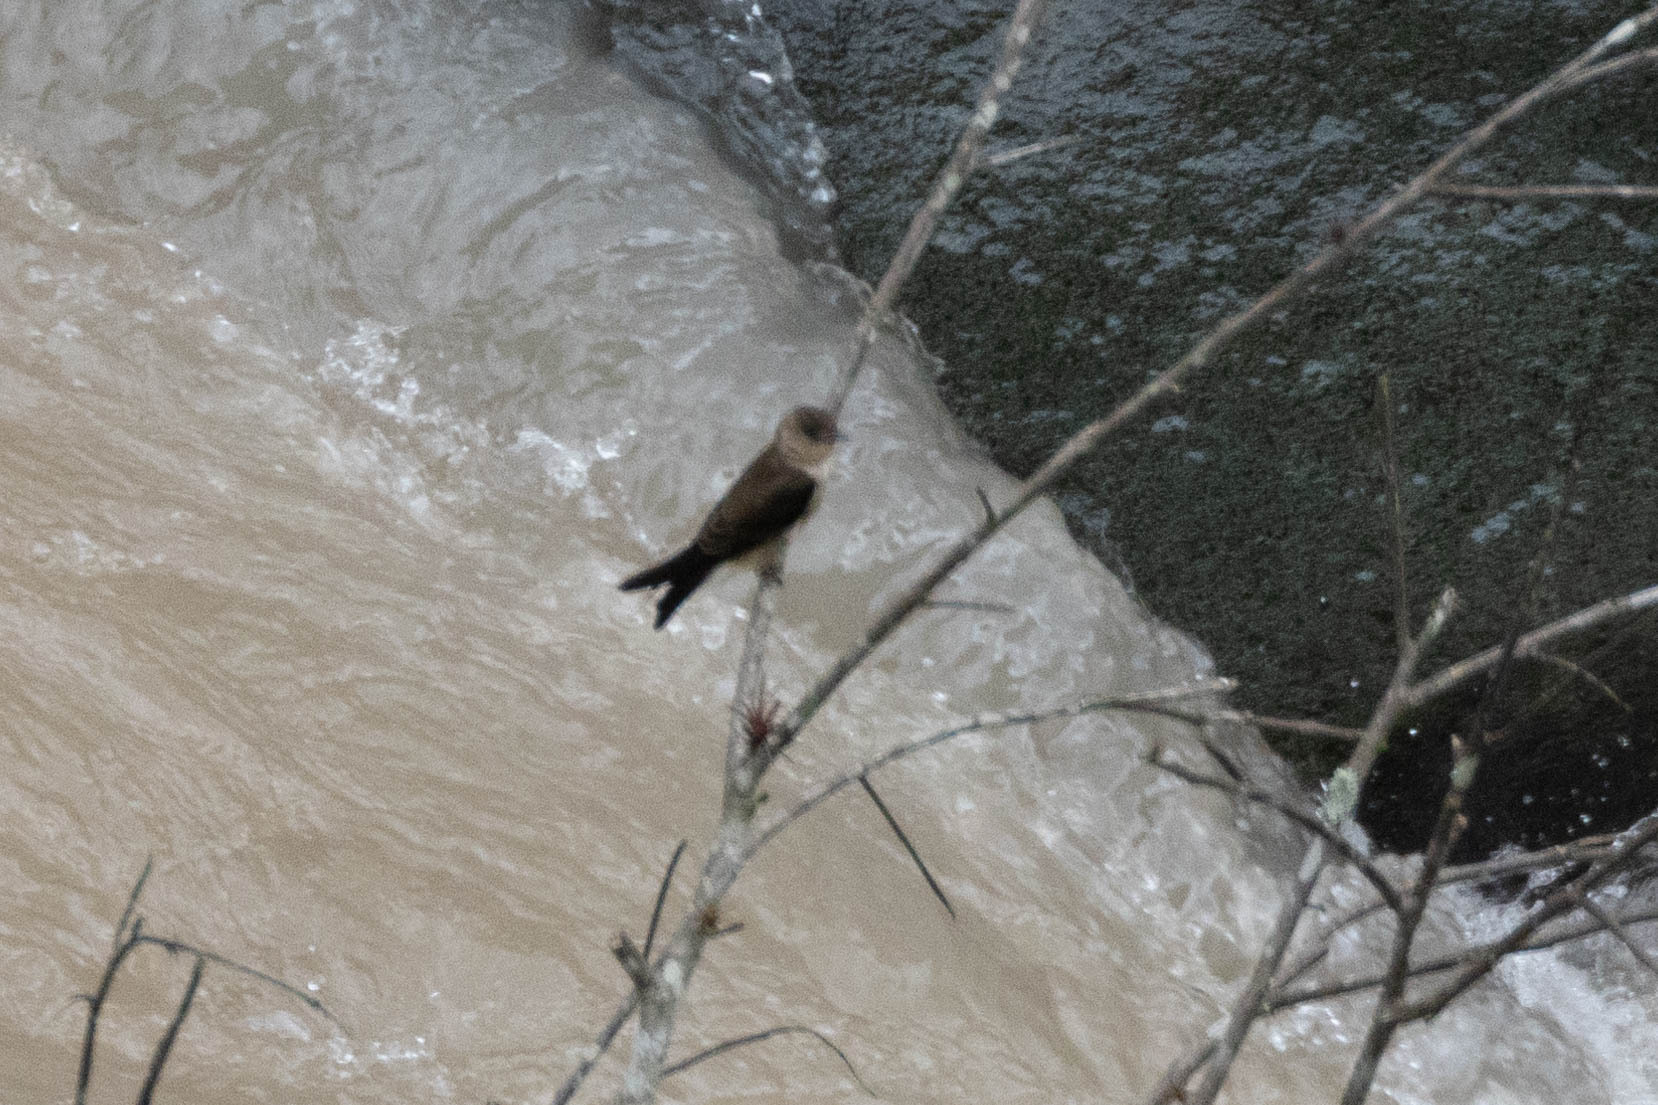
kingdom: Animalia
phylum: Chordata
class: Aves
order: Passeriformes
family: Hirundinidae
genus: Stelgidopteryx
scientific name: Stelgidopteryx ruficollis
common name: Southern rough-winged swallow
